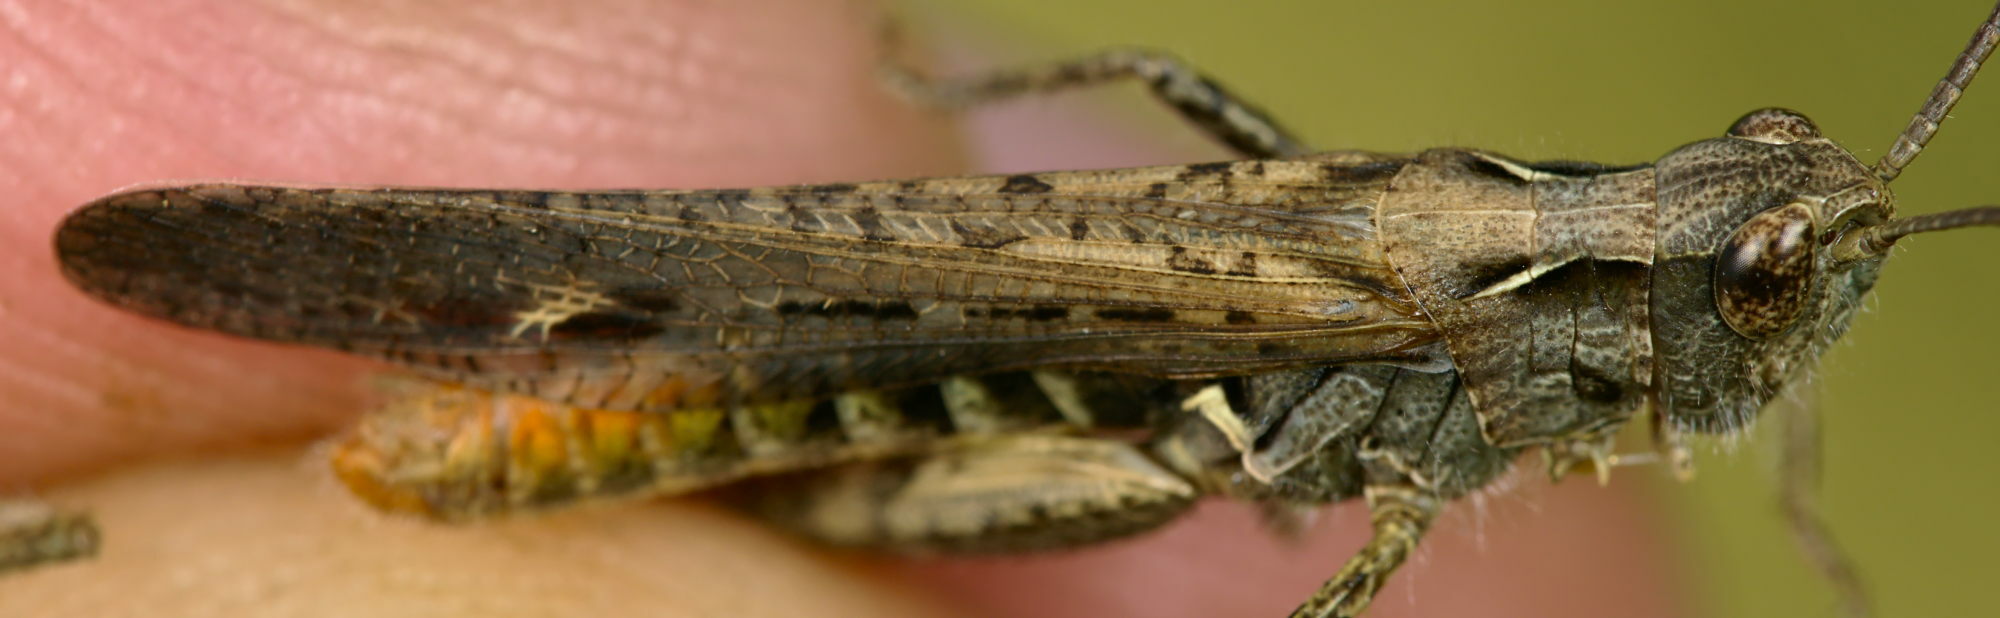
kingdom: Animalia
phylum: Arthropoda
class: Insecta
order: Orthoptera
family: Acrididae
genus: Chorthippus
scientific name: Chorthippus brunneus
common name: Field grasshopper
